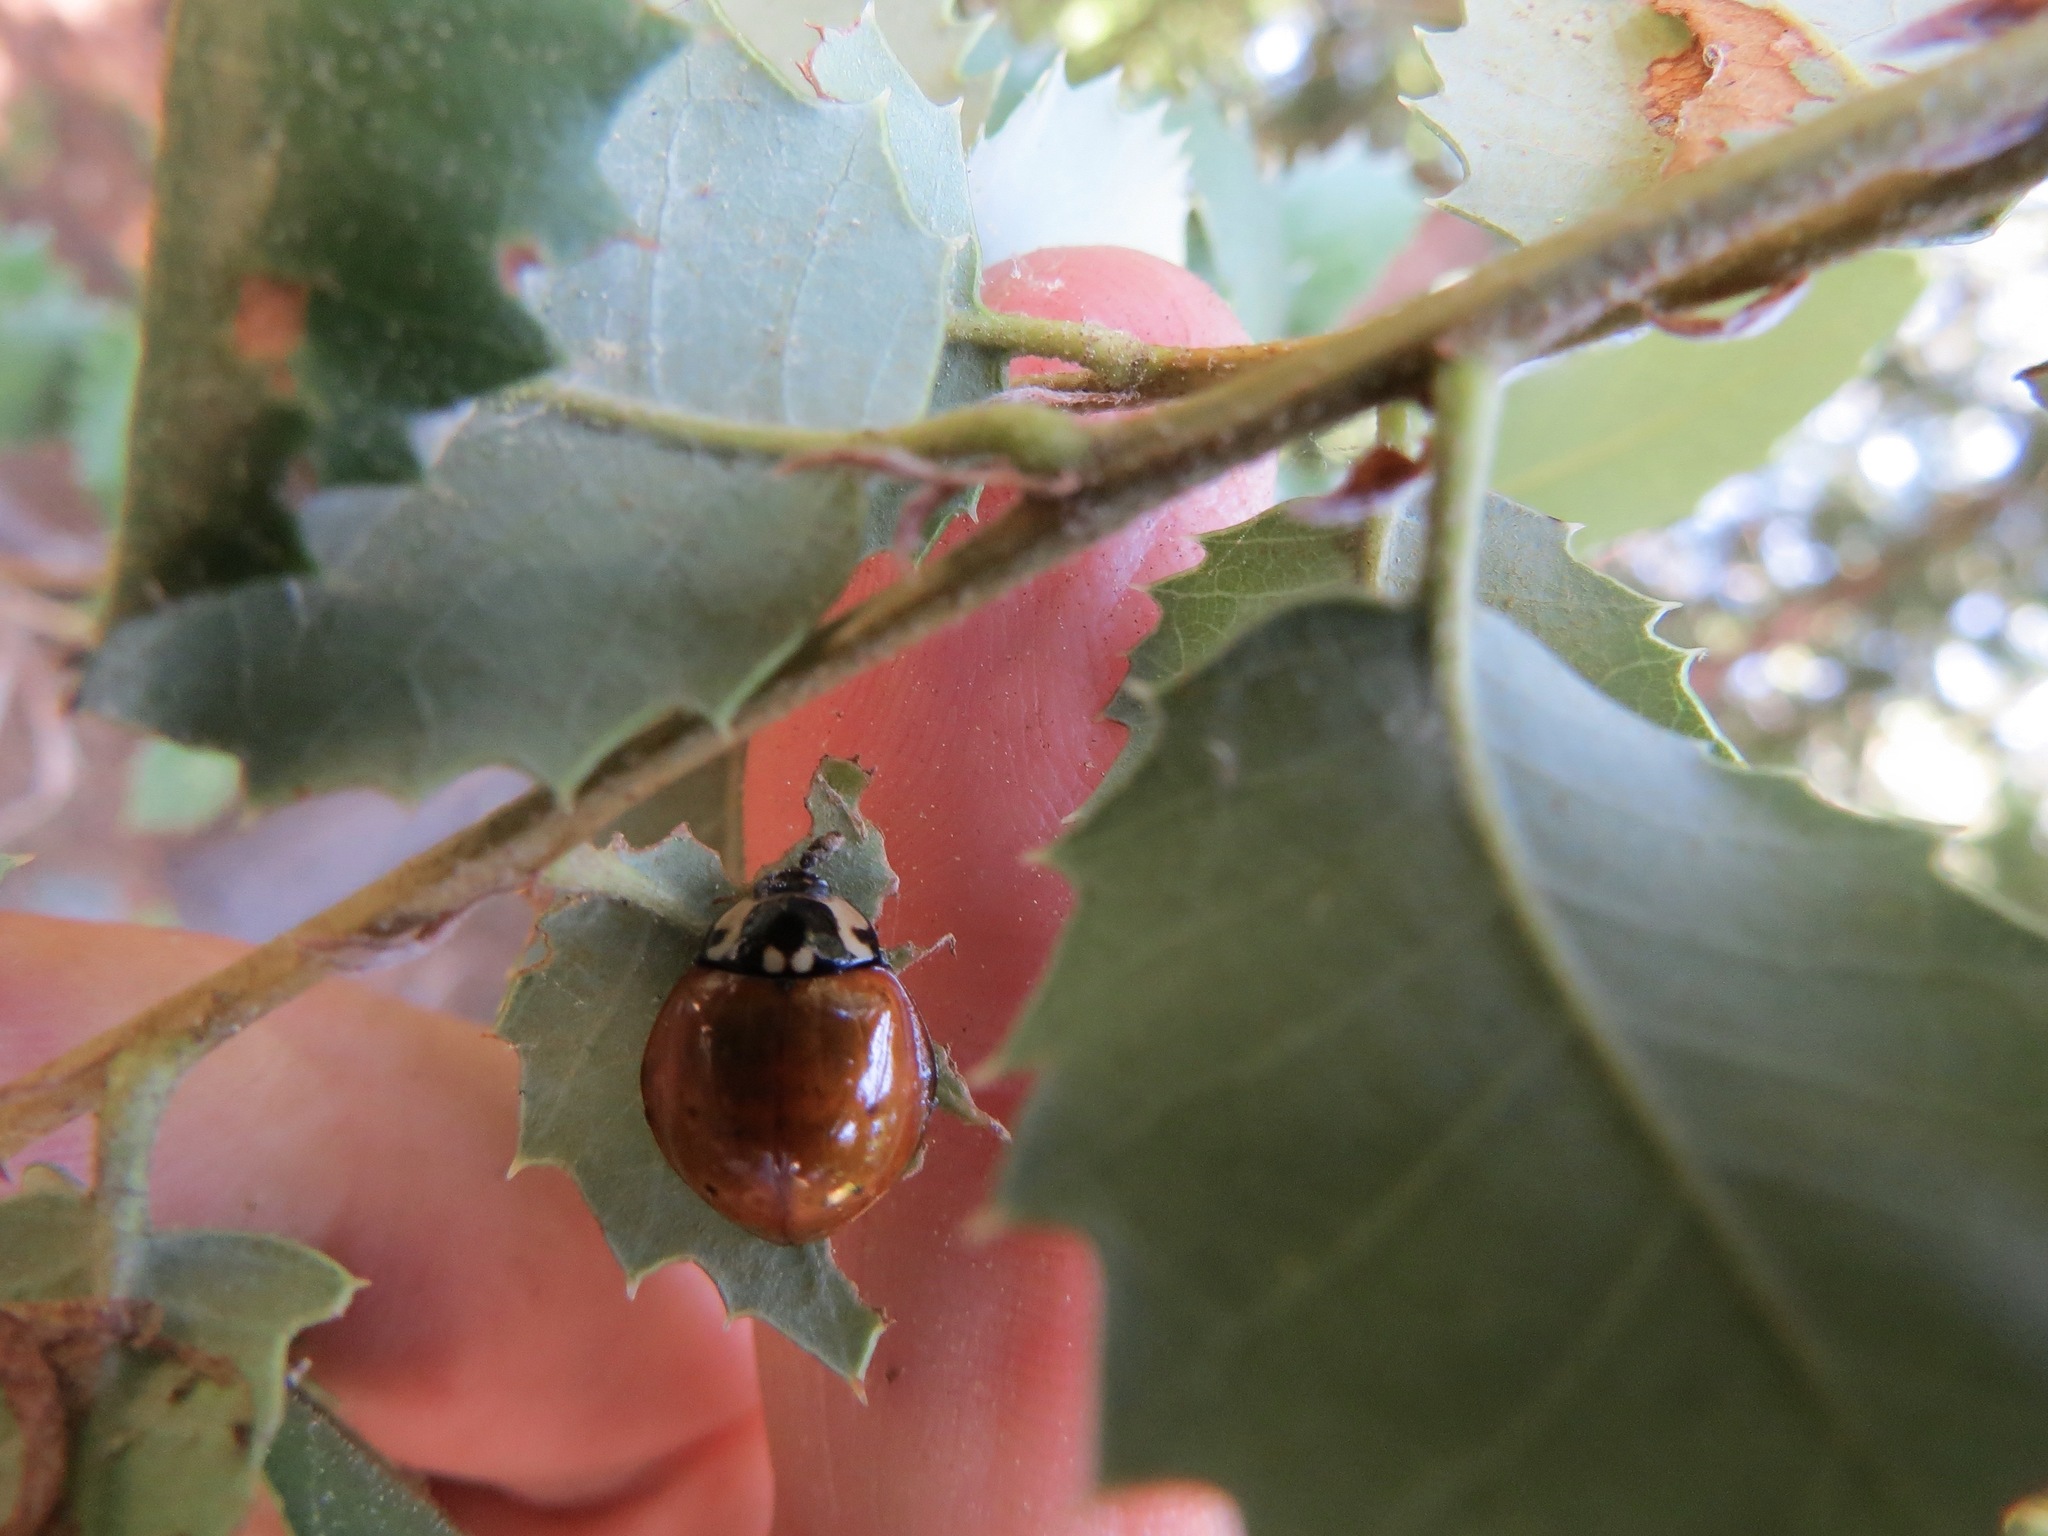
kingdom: Animalia
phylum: Arthropoda
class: Insecta
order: Coleoptera
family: Coccinellidae
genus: Anatis
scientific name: Anatis rathvoni
